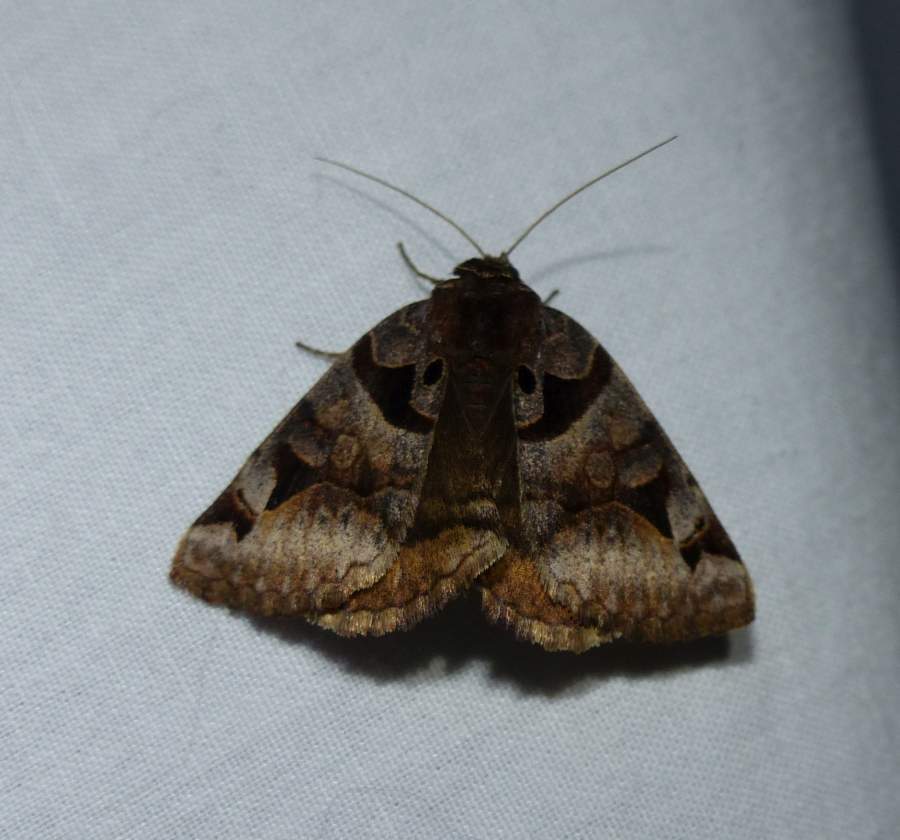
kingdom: Animalia
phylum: Arthropoda
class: Insecta
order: Lepidoptera
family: Erebidae
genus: Euclidia
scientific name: Euclidia cuspidea
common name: Toothed somberwing
